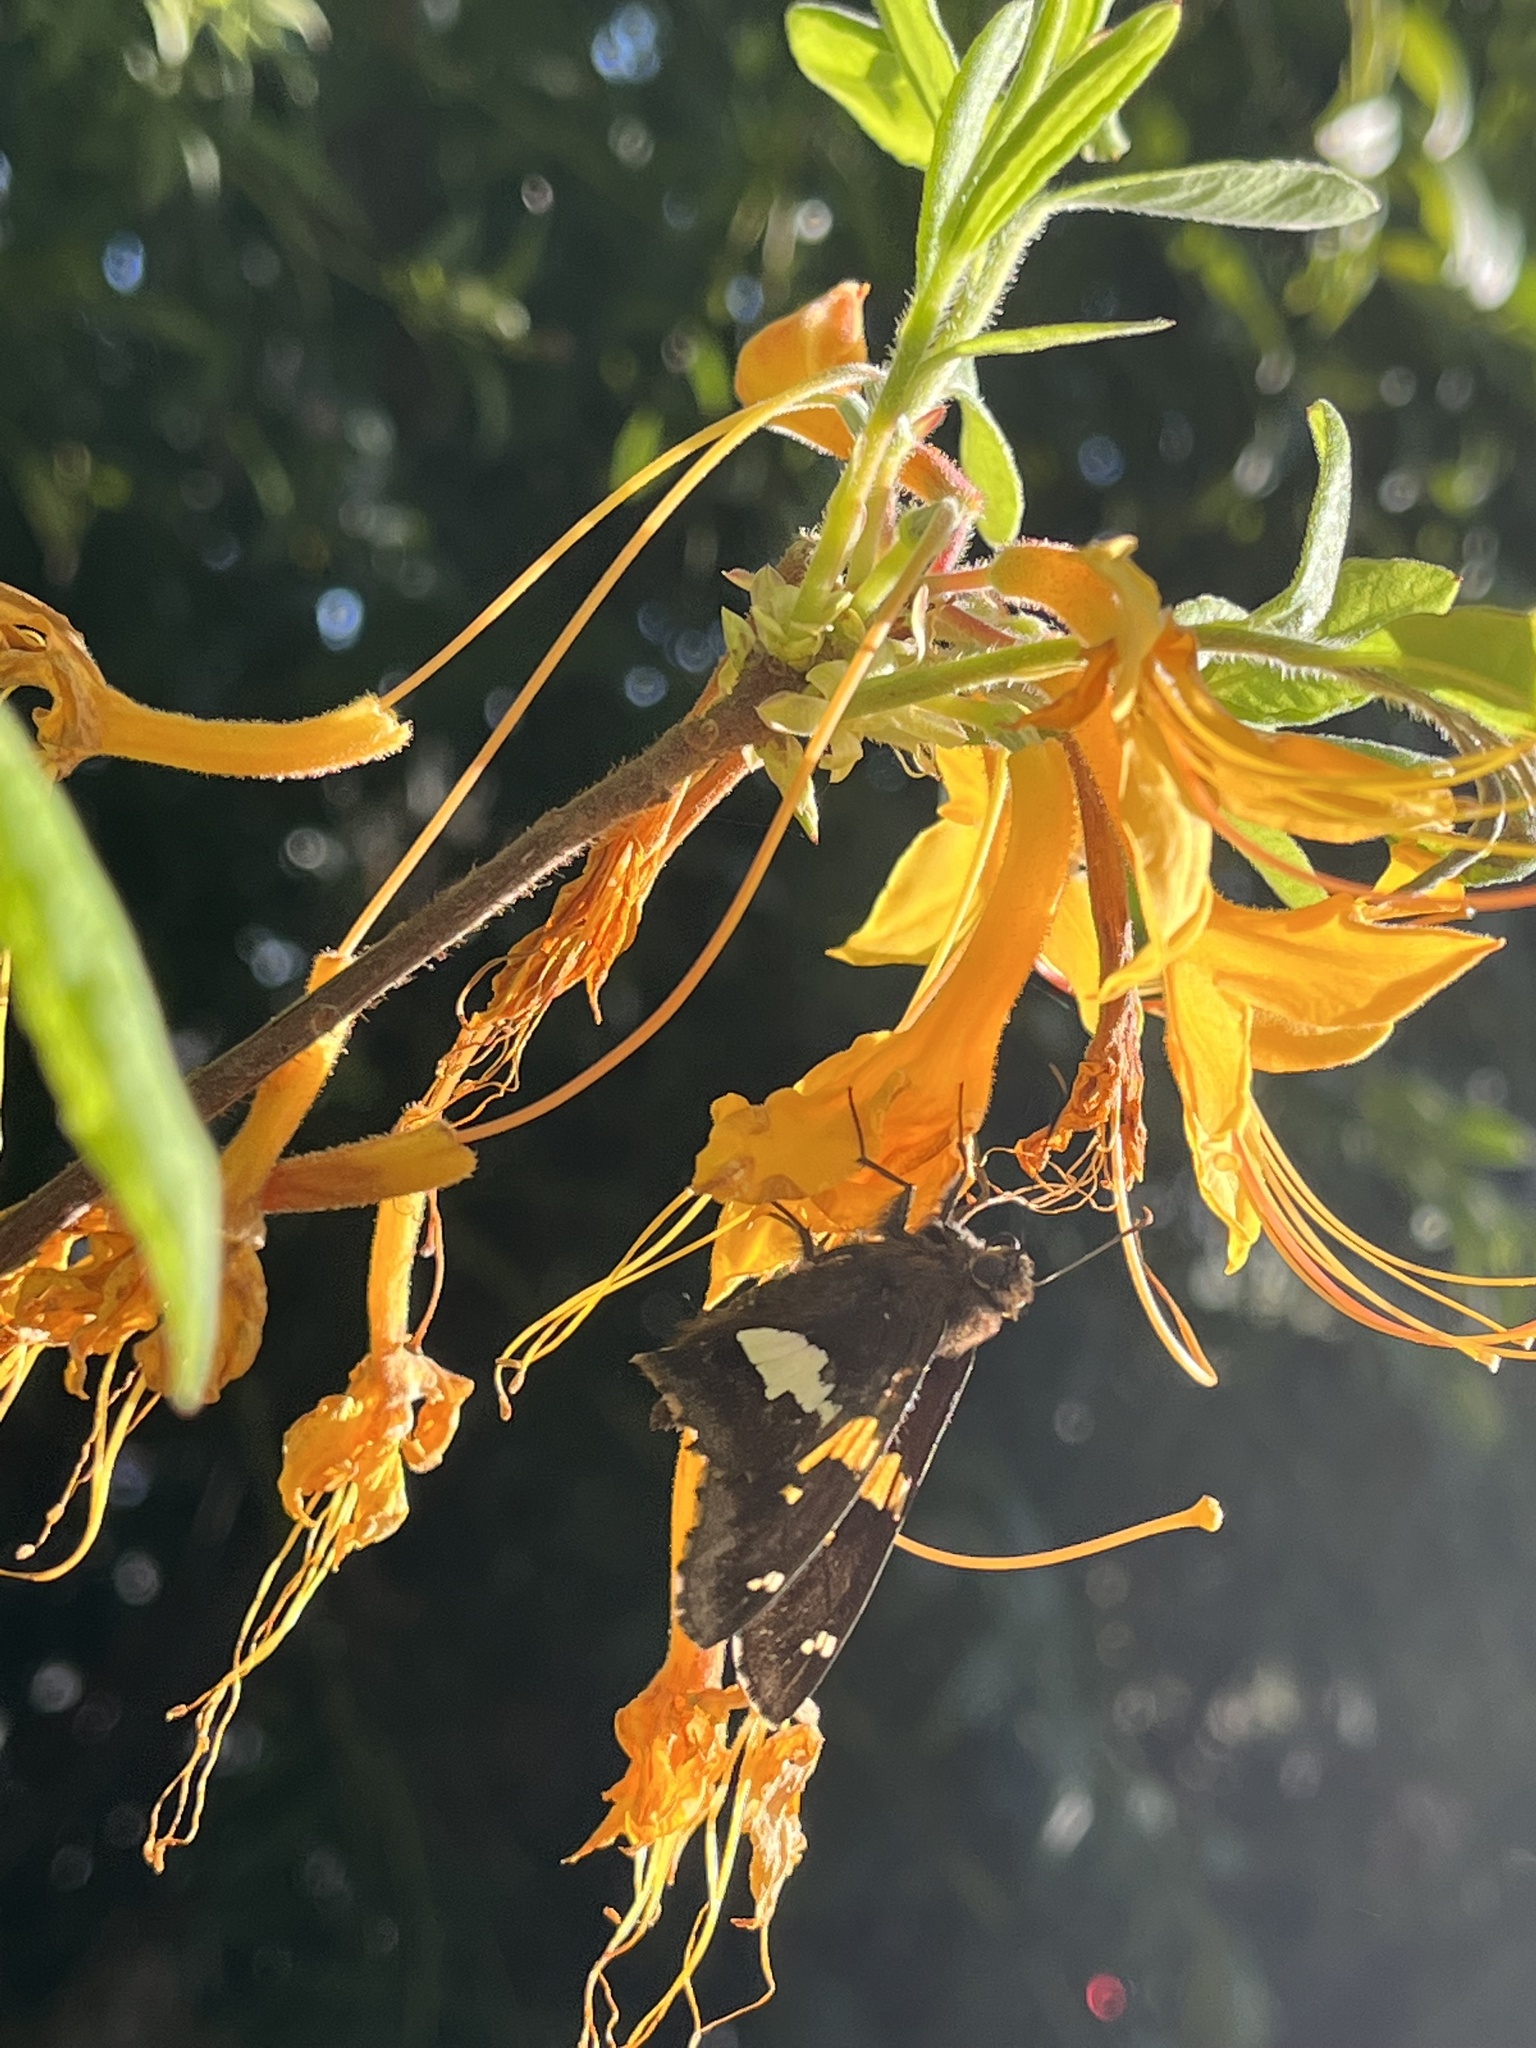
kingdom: Animalia
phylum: Arthropoda
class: Insecta
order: Lepidoptera
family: Hesperiidae
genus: Epargyreus
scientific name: Epargyreus clarus
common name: Silver-spotted skipper
